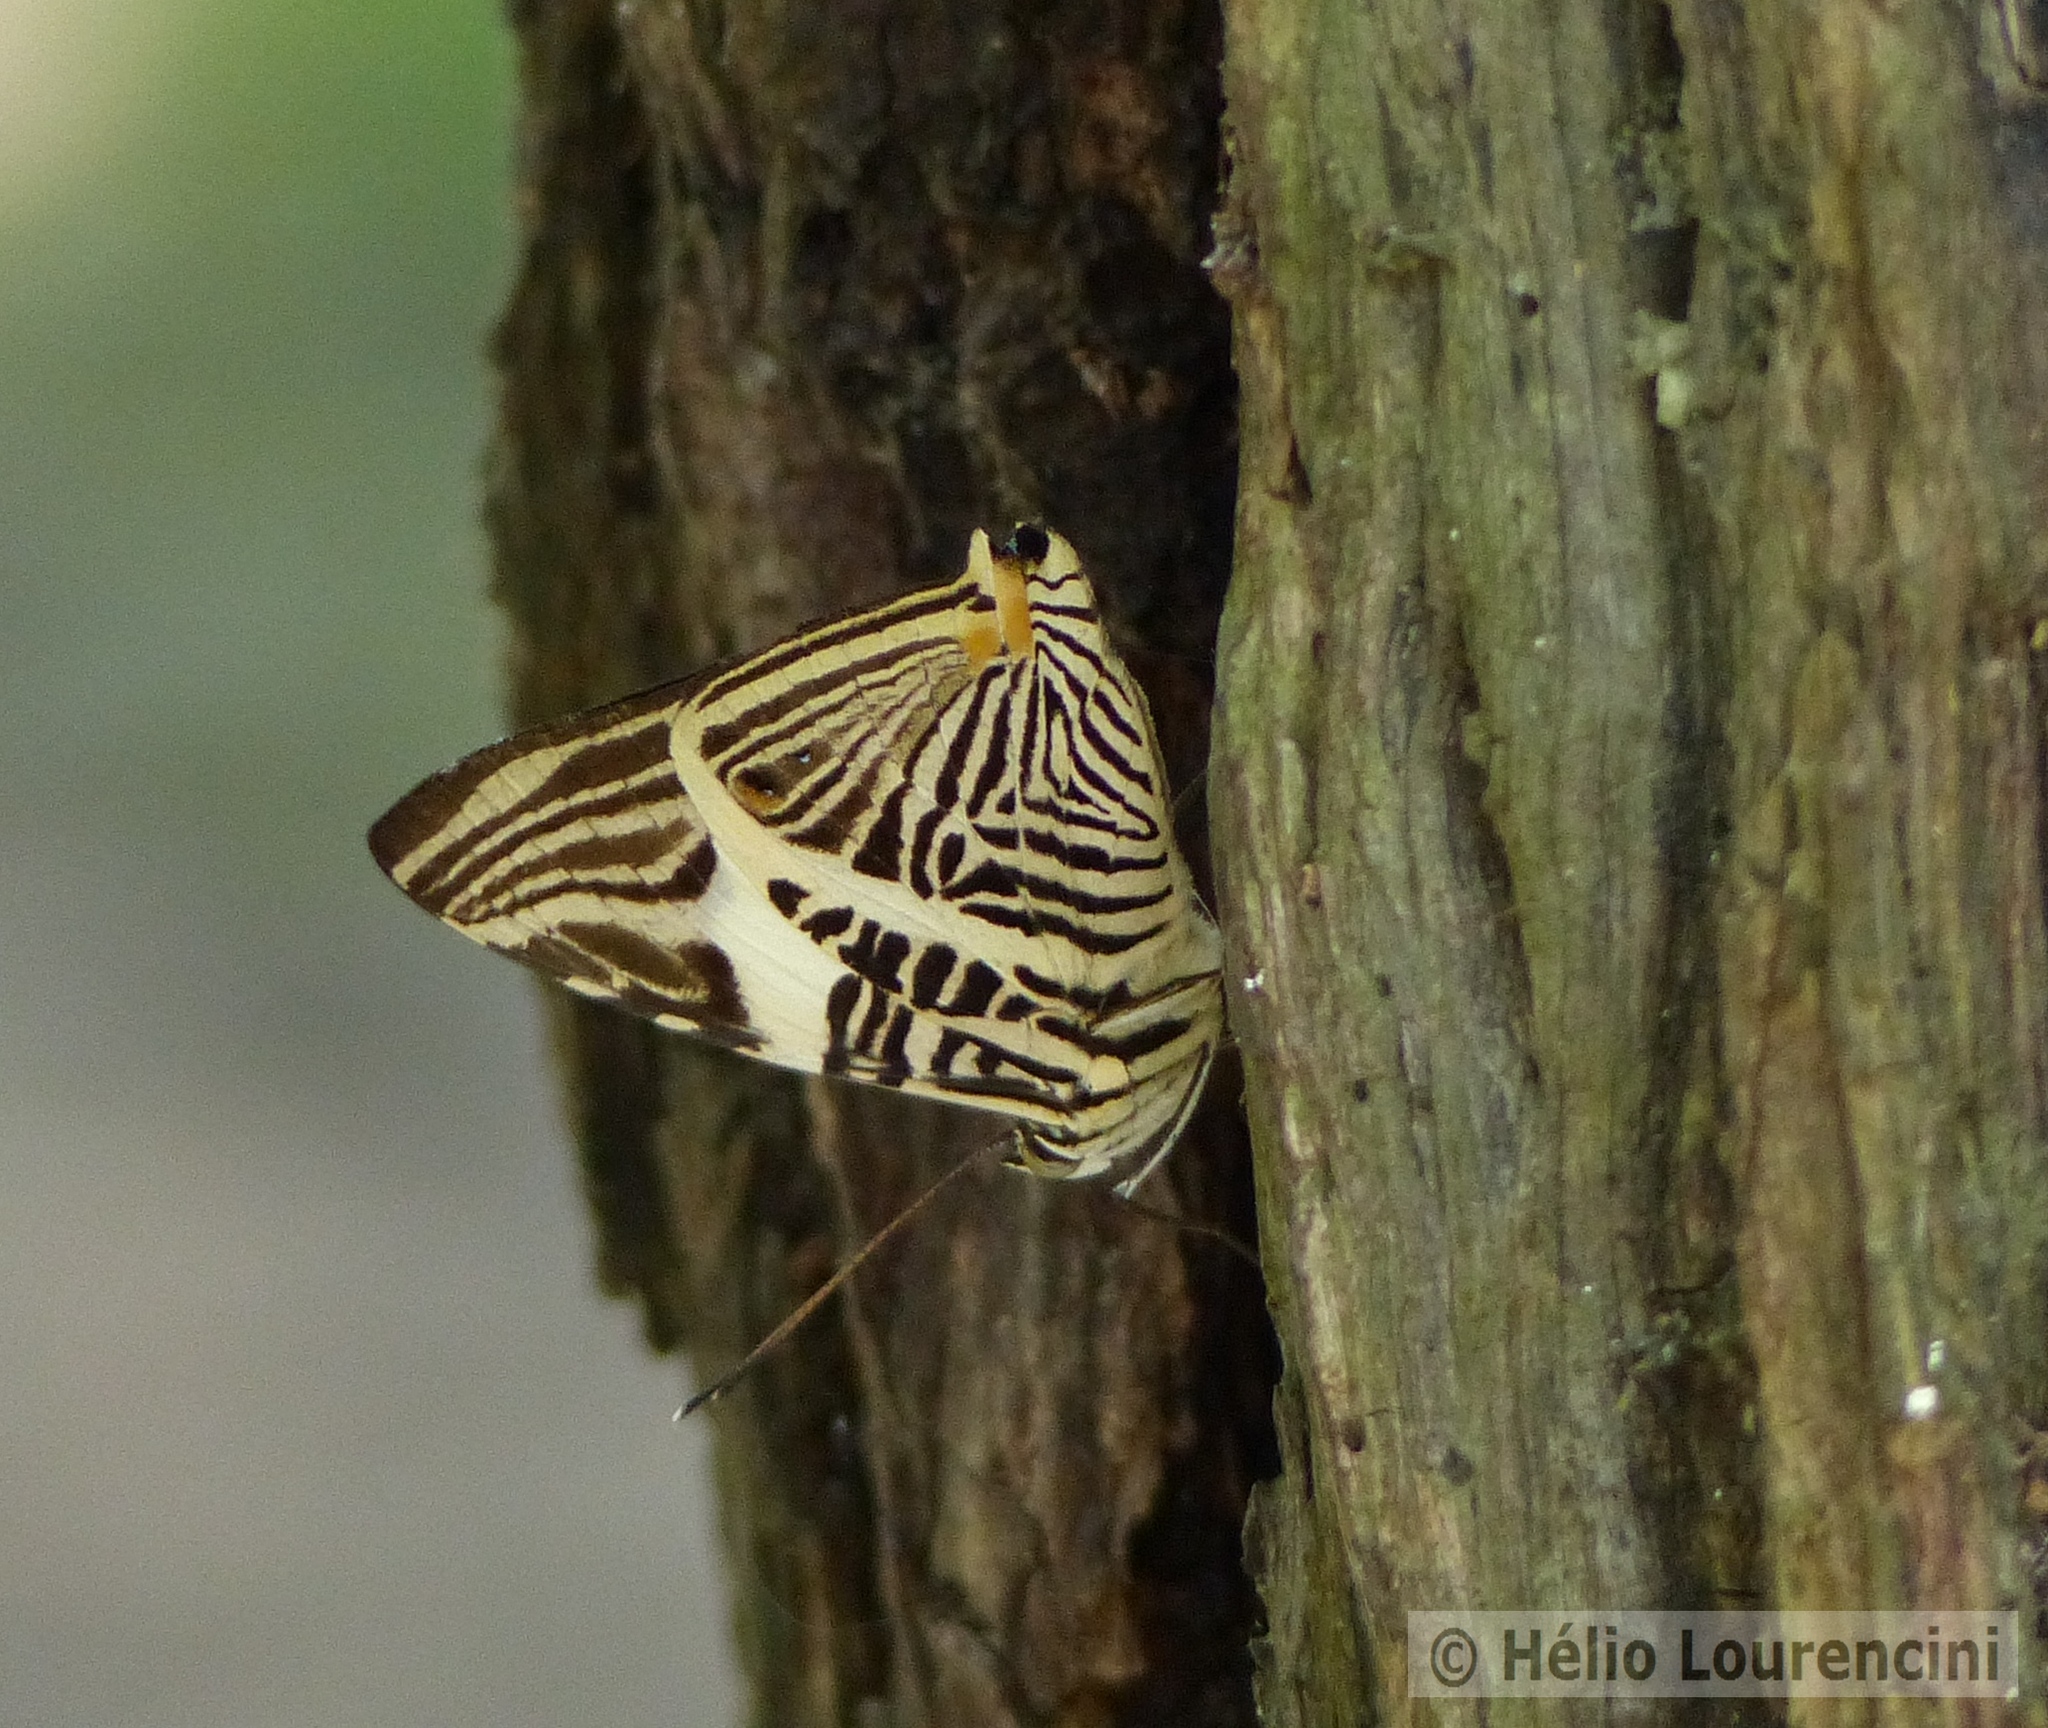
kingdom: Animalia
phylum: Arthropoda
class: Insecta
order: Lepidoptera
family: Nymphalidae
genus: Colobura
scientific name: Colobura dirce
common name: Dirce beauty
